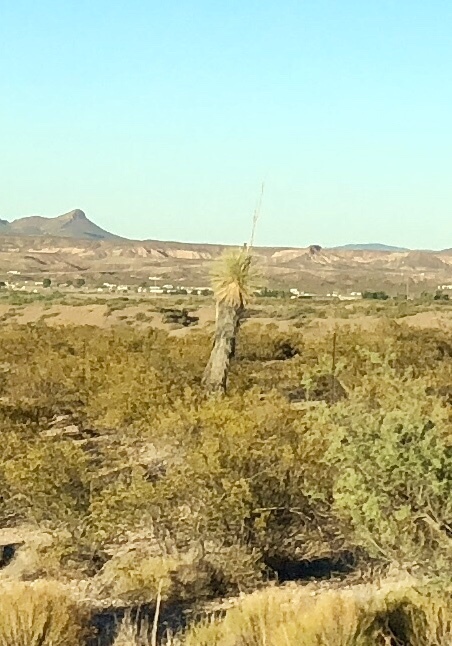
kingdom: Plantae
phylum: Tracheophyta
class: Liliopsida
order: Asparagales
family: Asparagaceae
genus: Yucca
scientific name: Yucca elata
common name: Palmella
